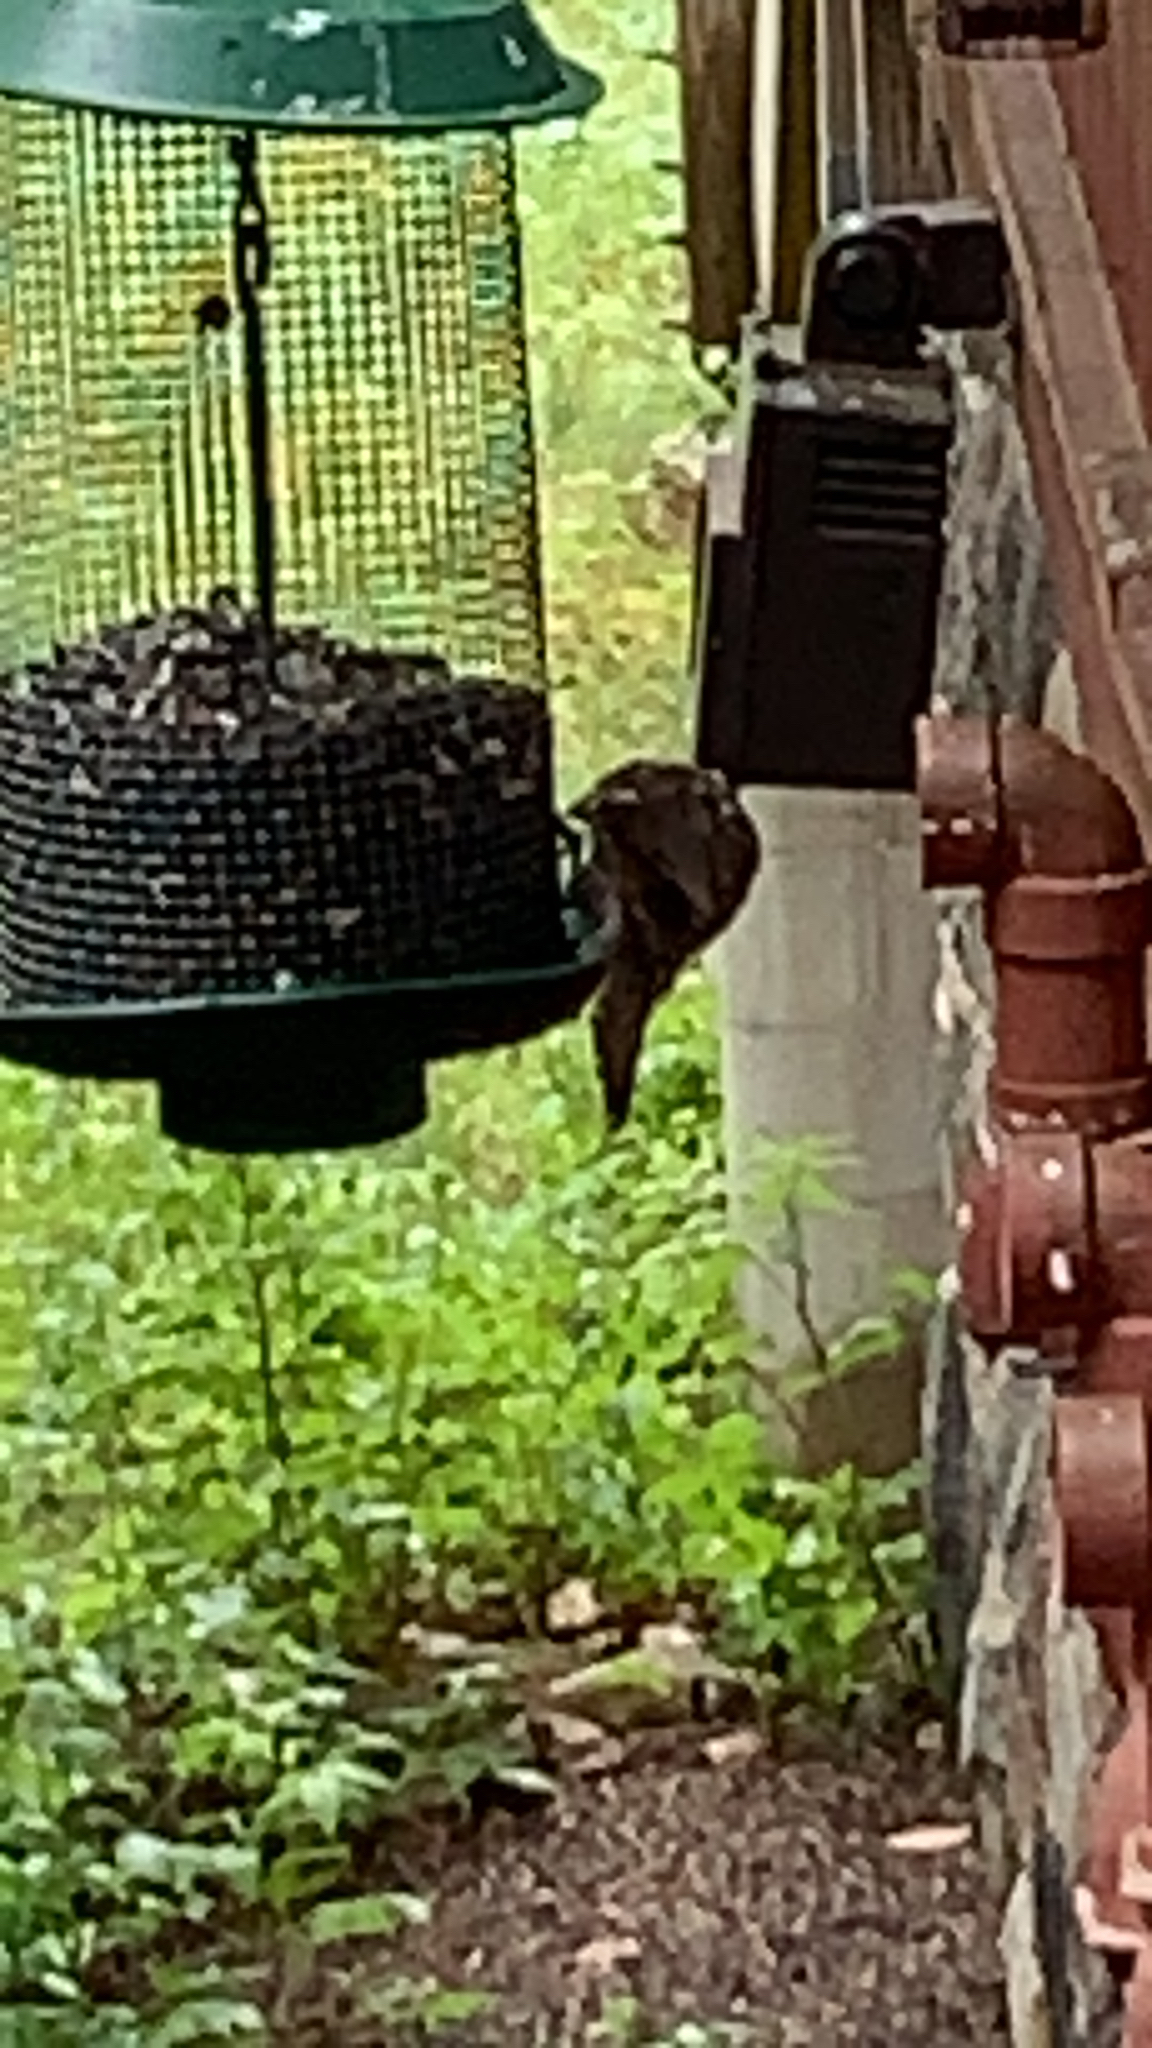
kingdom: Animalia
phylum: Chordata
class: Aves
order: Passeriformes
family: Cardinalidae
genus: Pheucticus
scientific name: Pheucticus ludovicianus
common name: Rose-breasted grosbeak
